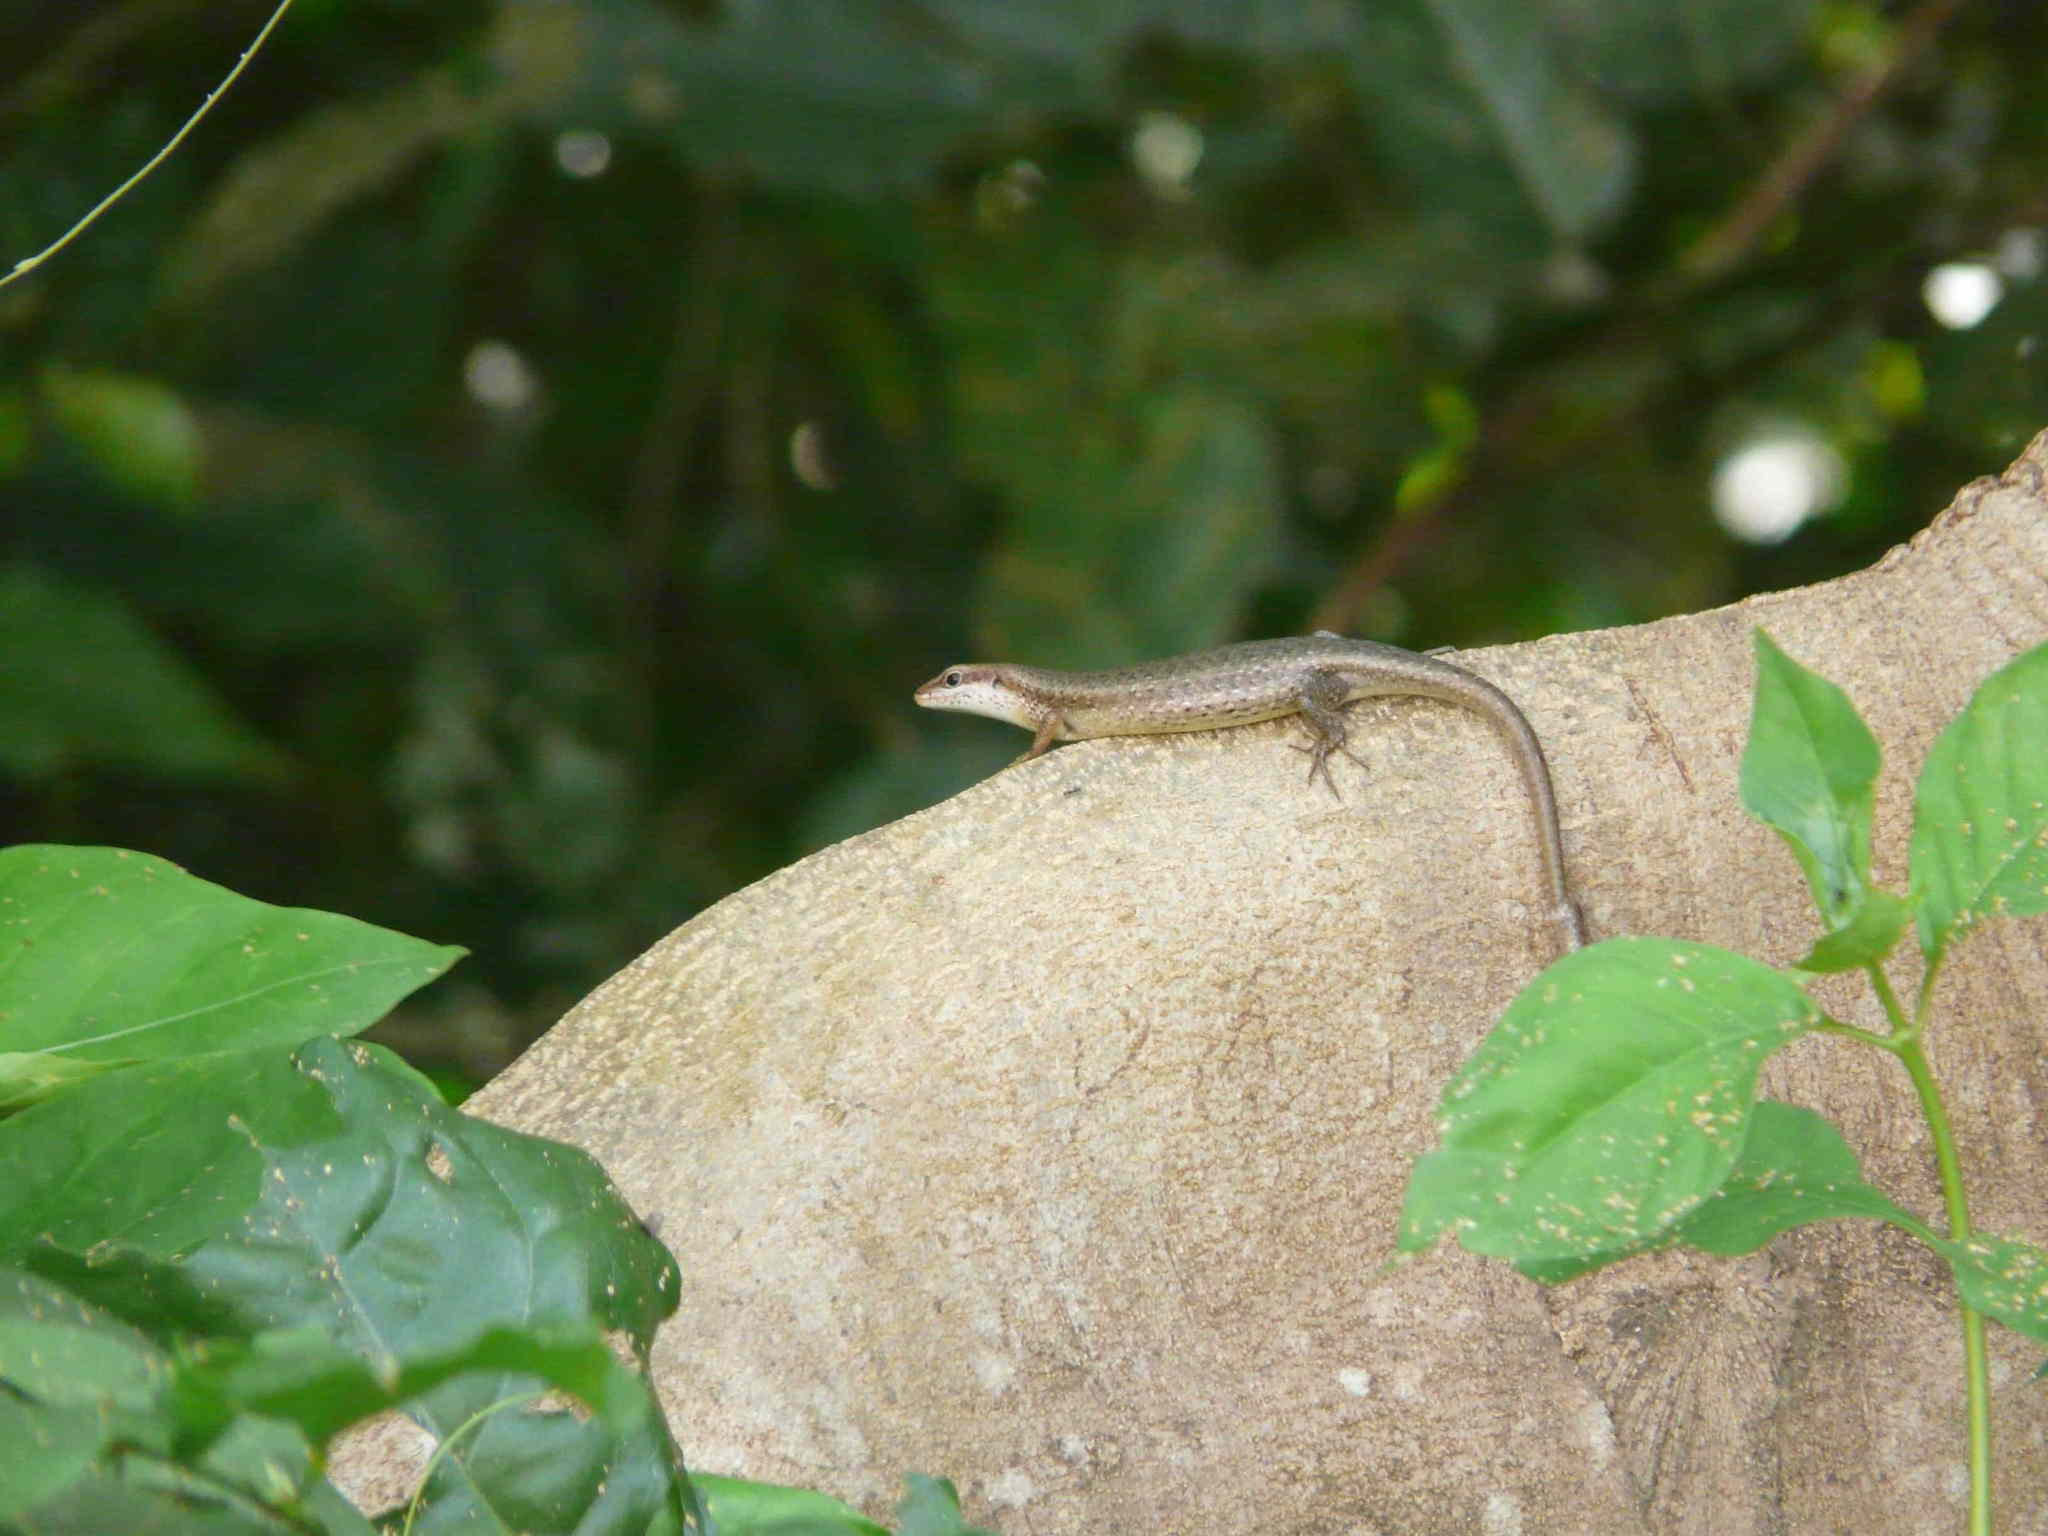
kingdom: Animalia
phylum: Chordata
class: Squamata
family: Scincidae
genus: Trachylepis
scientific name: Trachylepis affinis
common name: Senegal mabuya
